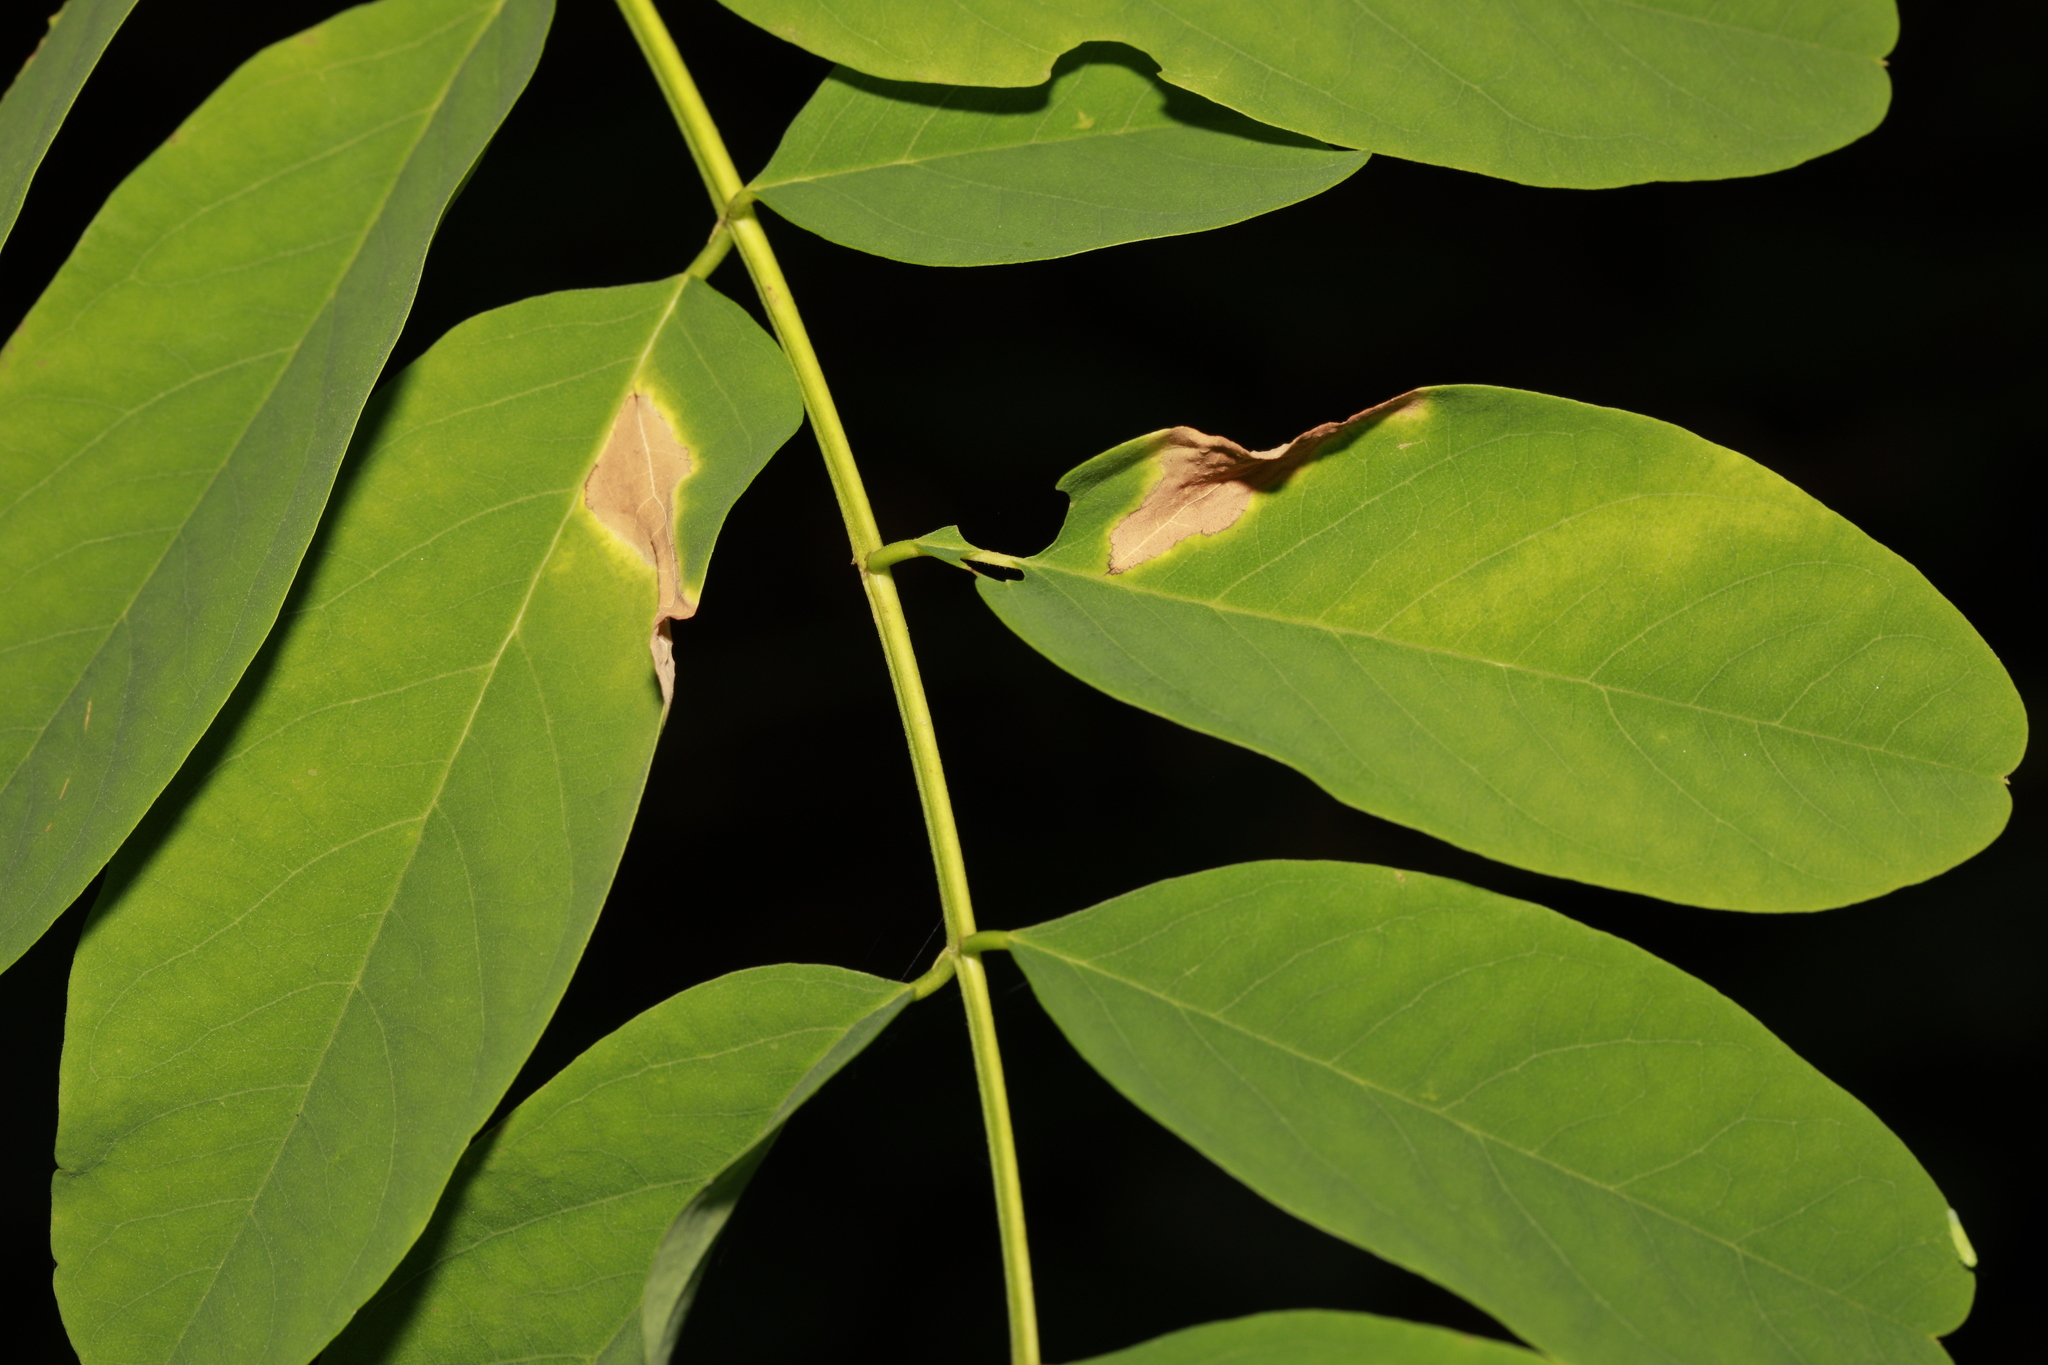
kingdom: Fungi
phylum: Ascomycota
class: Dothideomycetes
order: Mycosphaerellales
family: Mycosphaerellaceae
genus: Phloeospora
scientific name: Phloeospora robiniae
